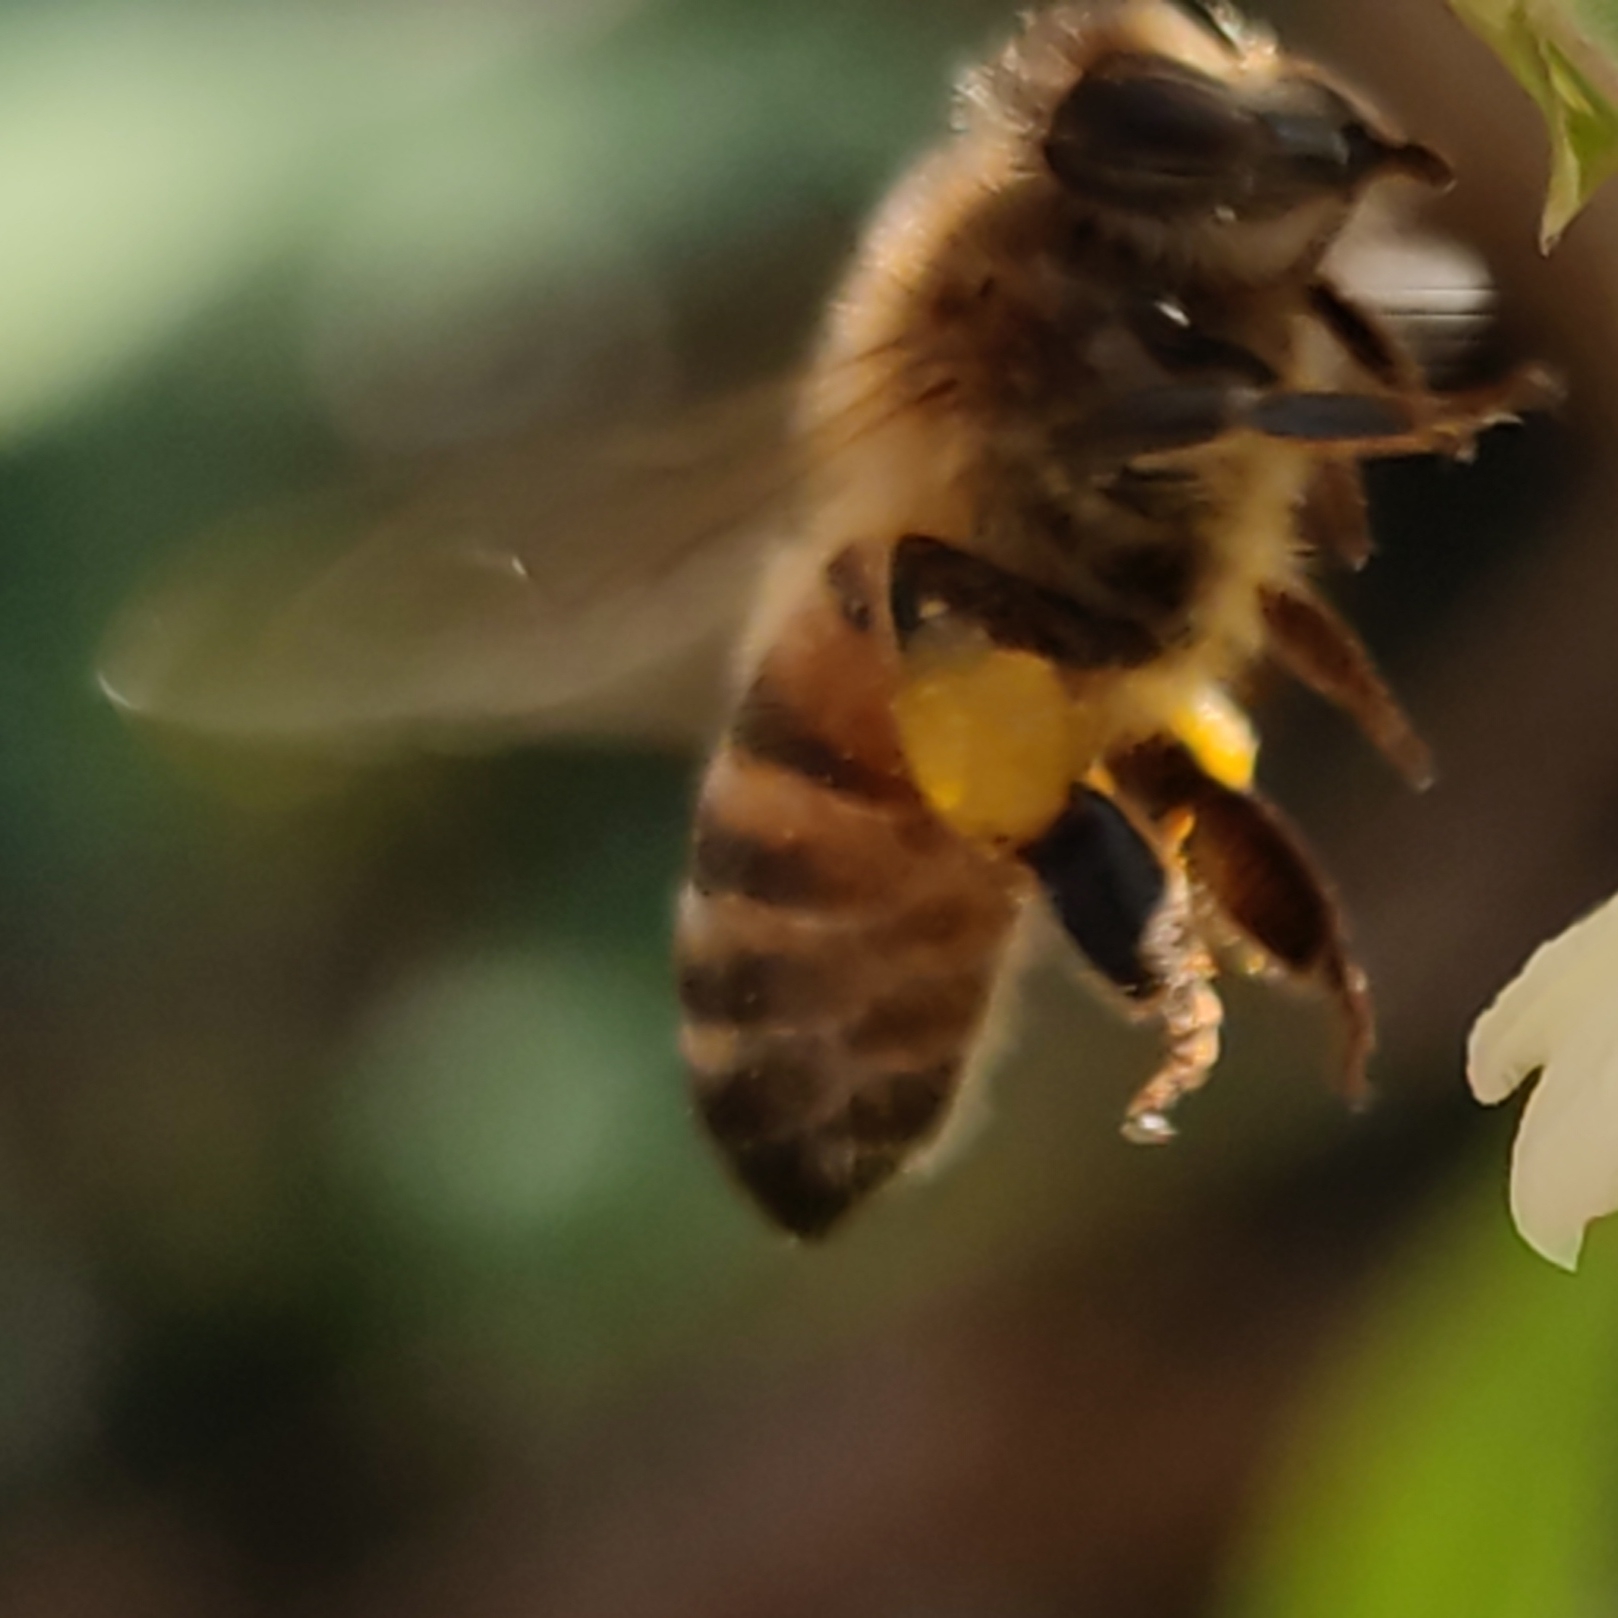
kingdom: Animalia
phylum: Arthropoda
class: Insecta
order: Hymenoptera
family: Apidae
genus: Apis
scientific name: Apis mellifera
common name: Honey bee
